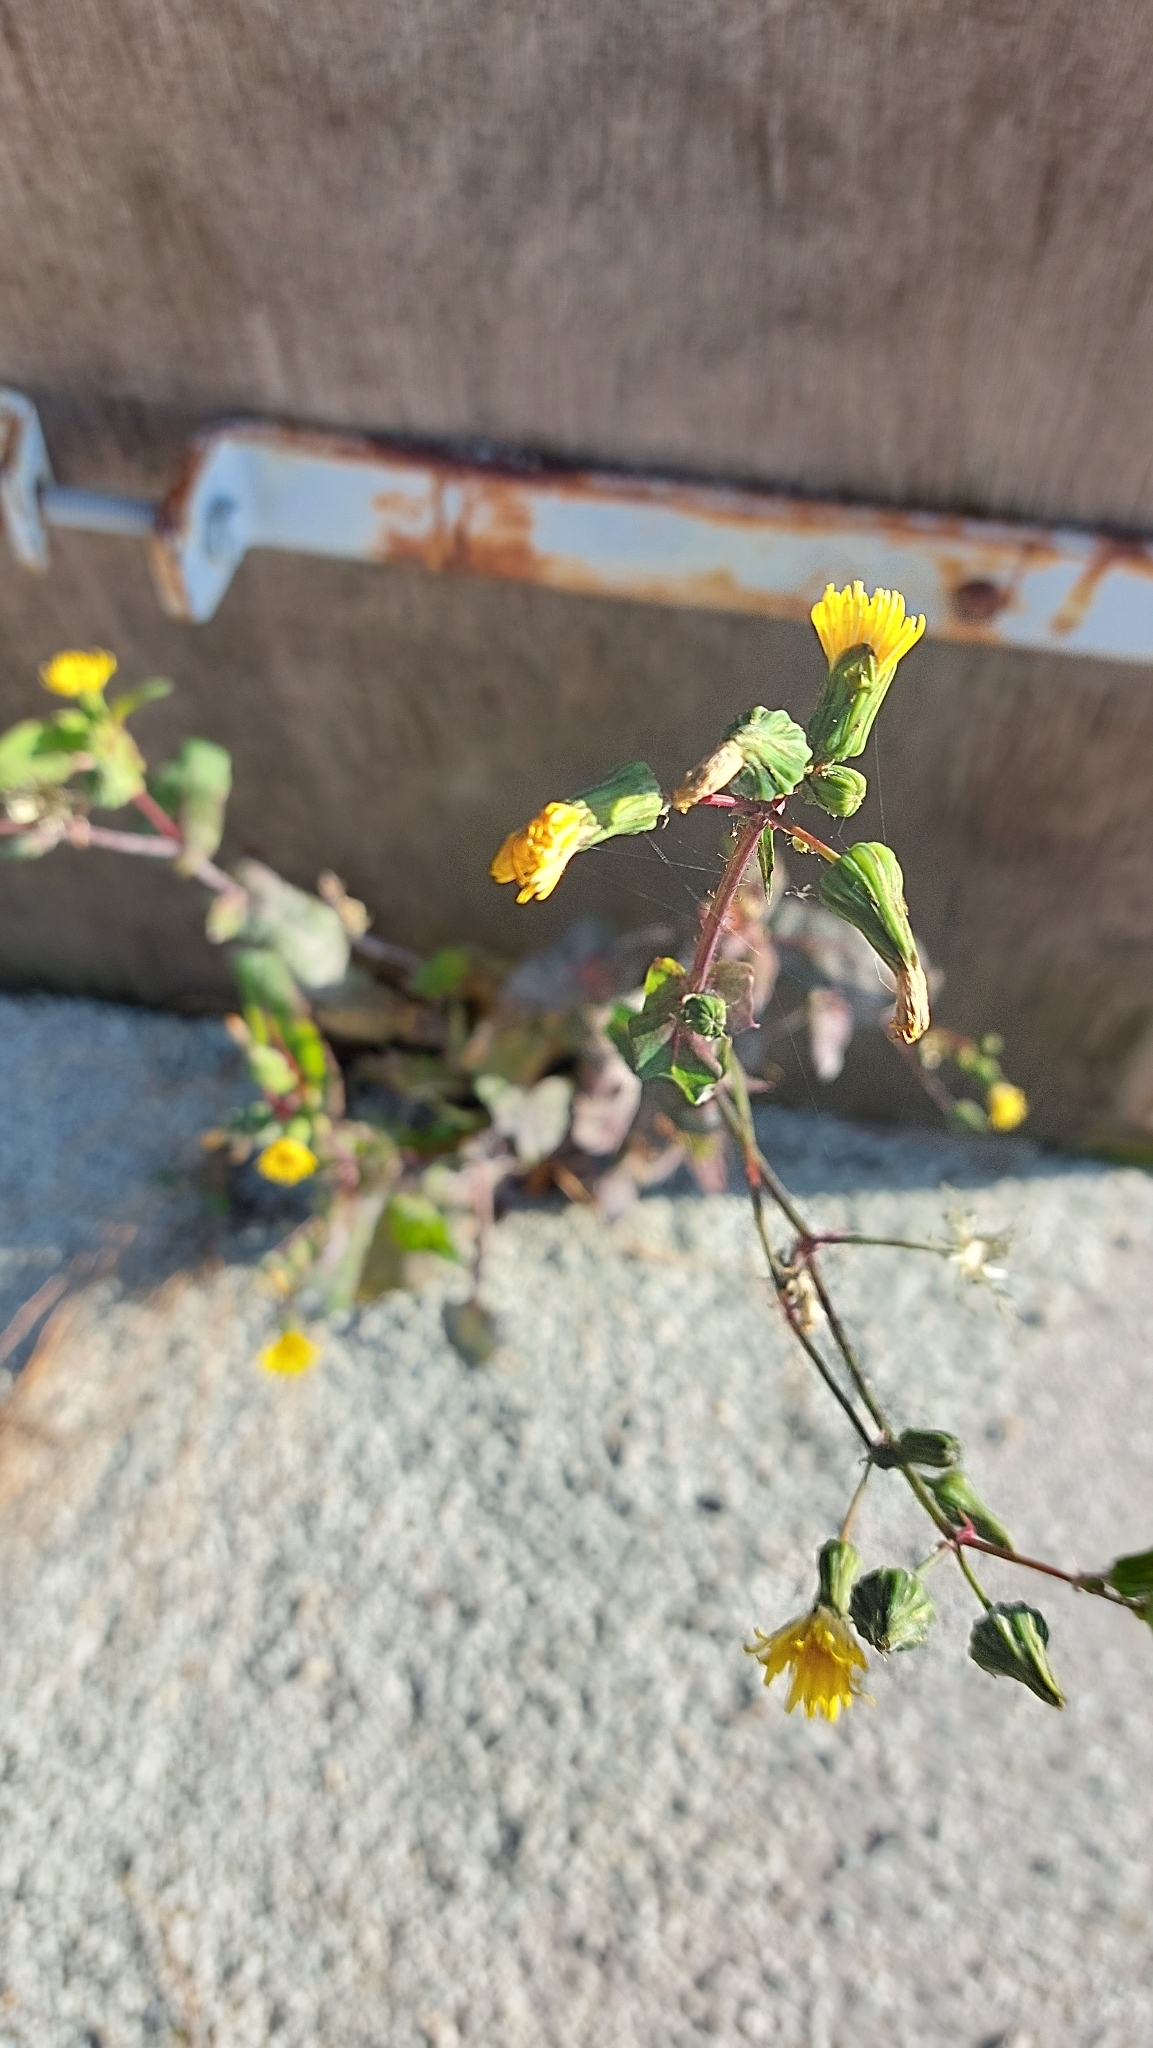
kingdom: Plantae
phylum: Tracheophyta
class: Magnoliopsida
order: Asterales
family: Asteraceae
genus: Sonchus
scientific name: Sonchus oleraceus
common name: Common sowthistle
